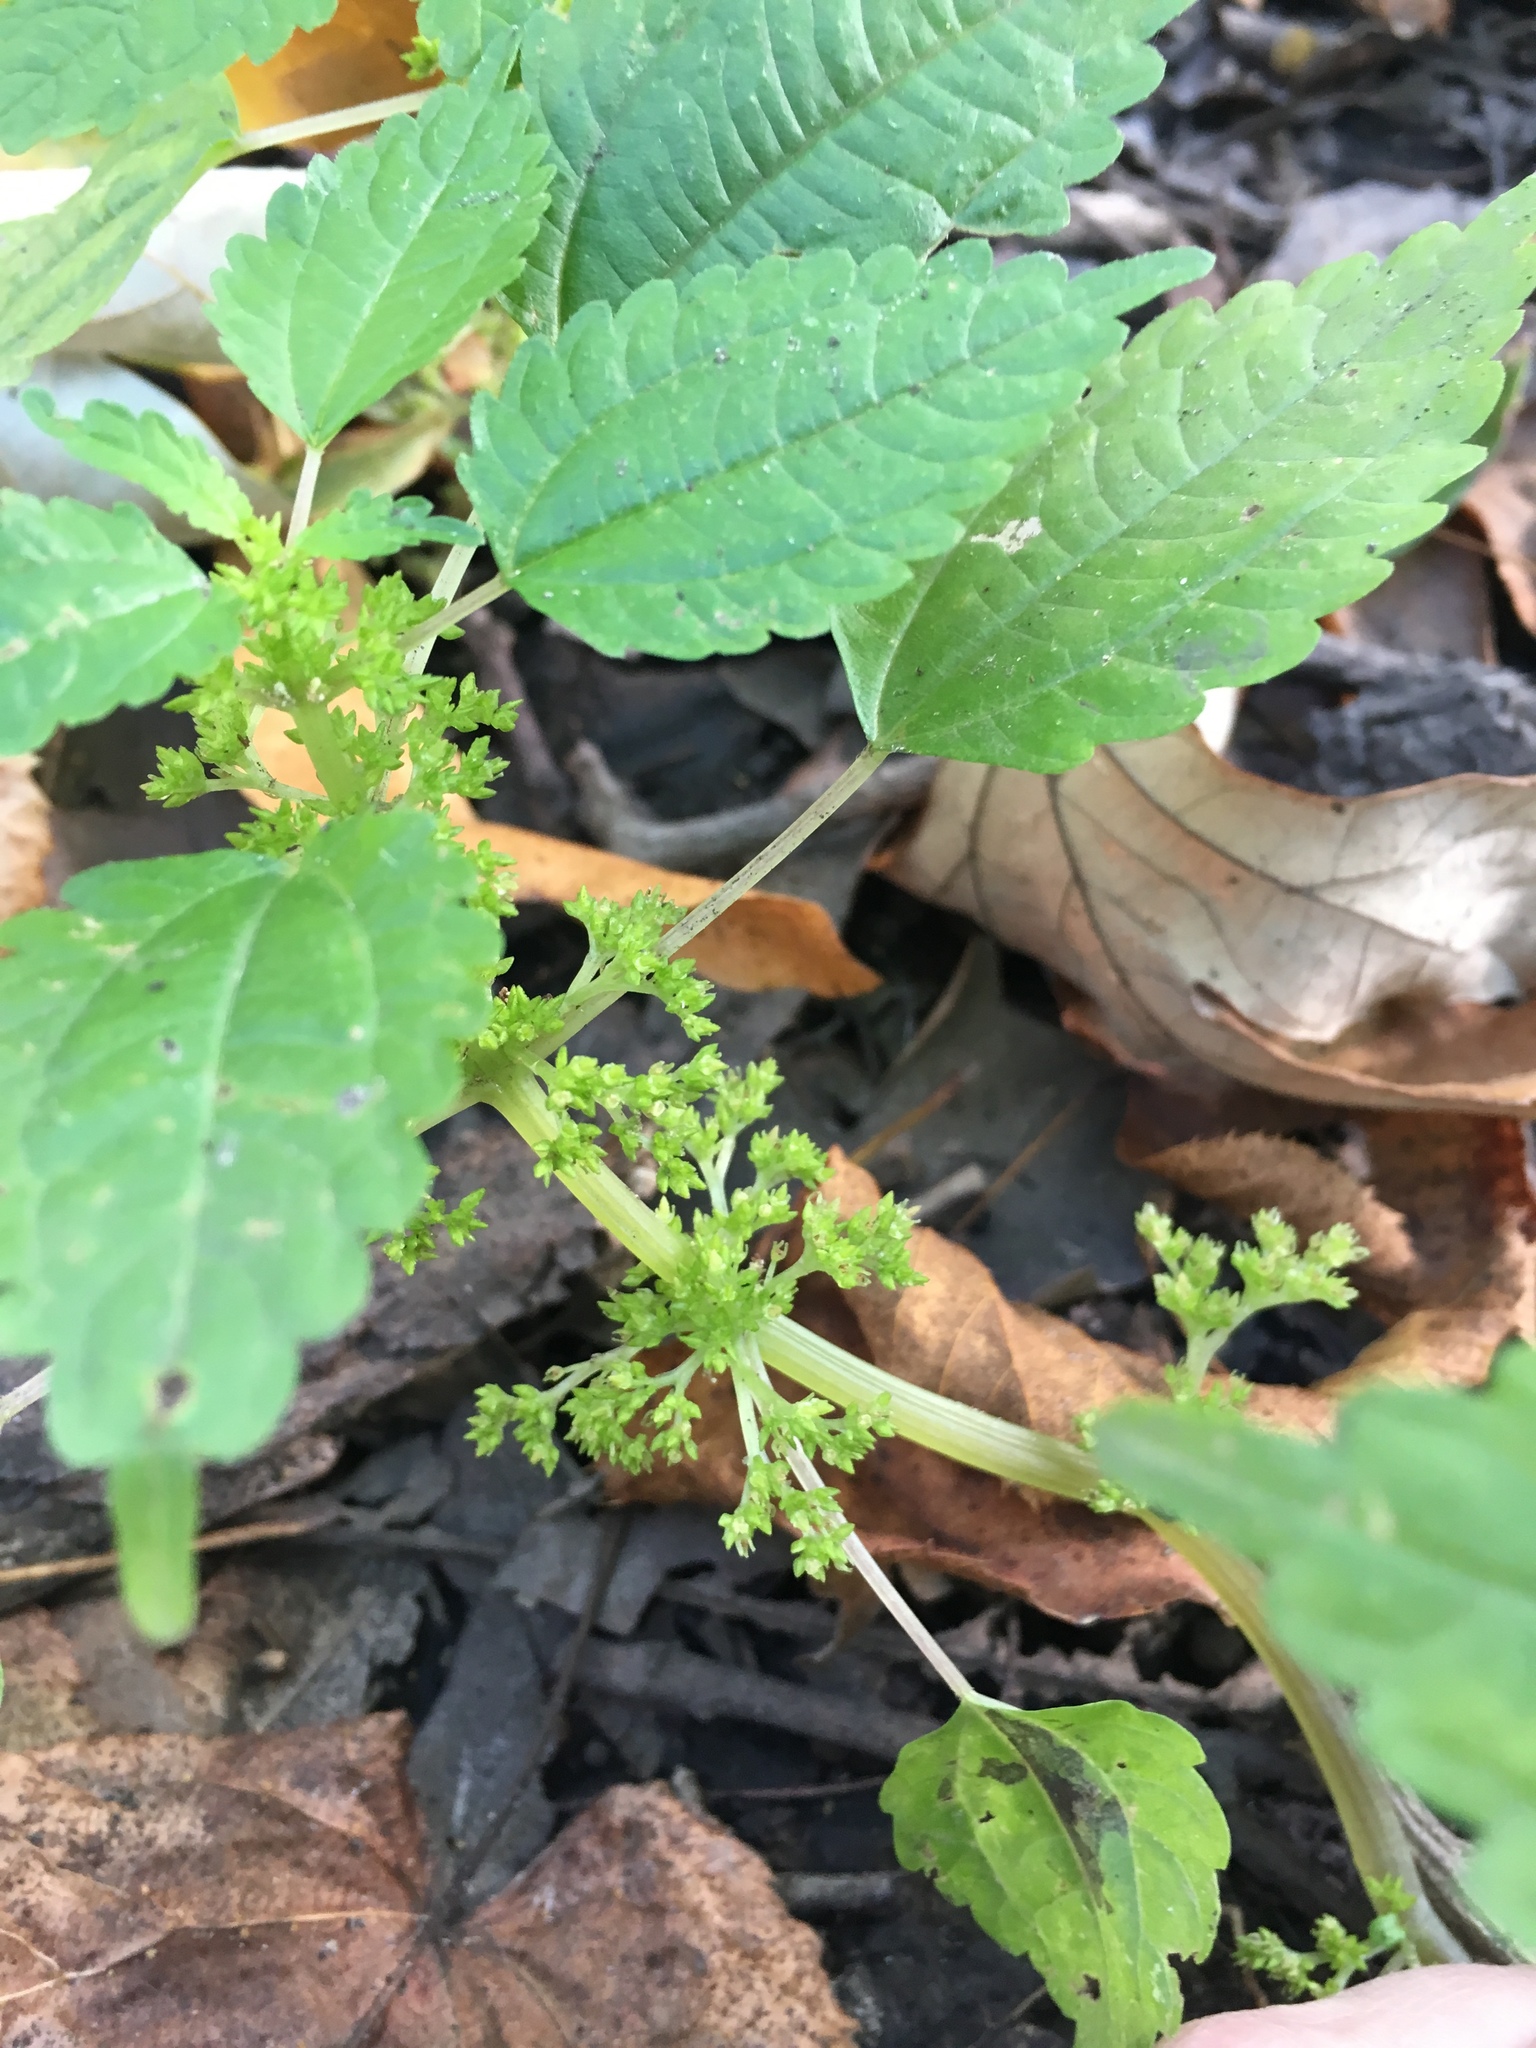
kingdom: Plantae
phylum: Tracheophyta
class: Magnoliopsida
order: Rosales
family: Urticaceae
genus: Pilea
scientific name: Pilea pumila
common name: Clearweed
